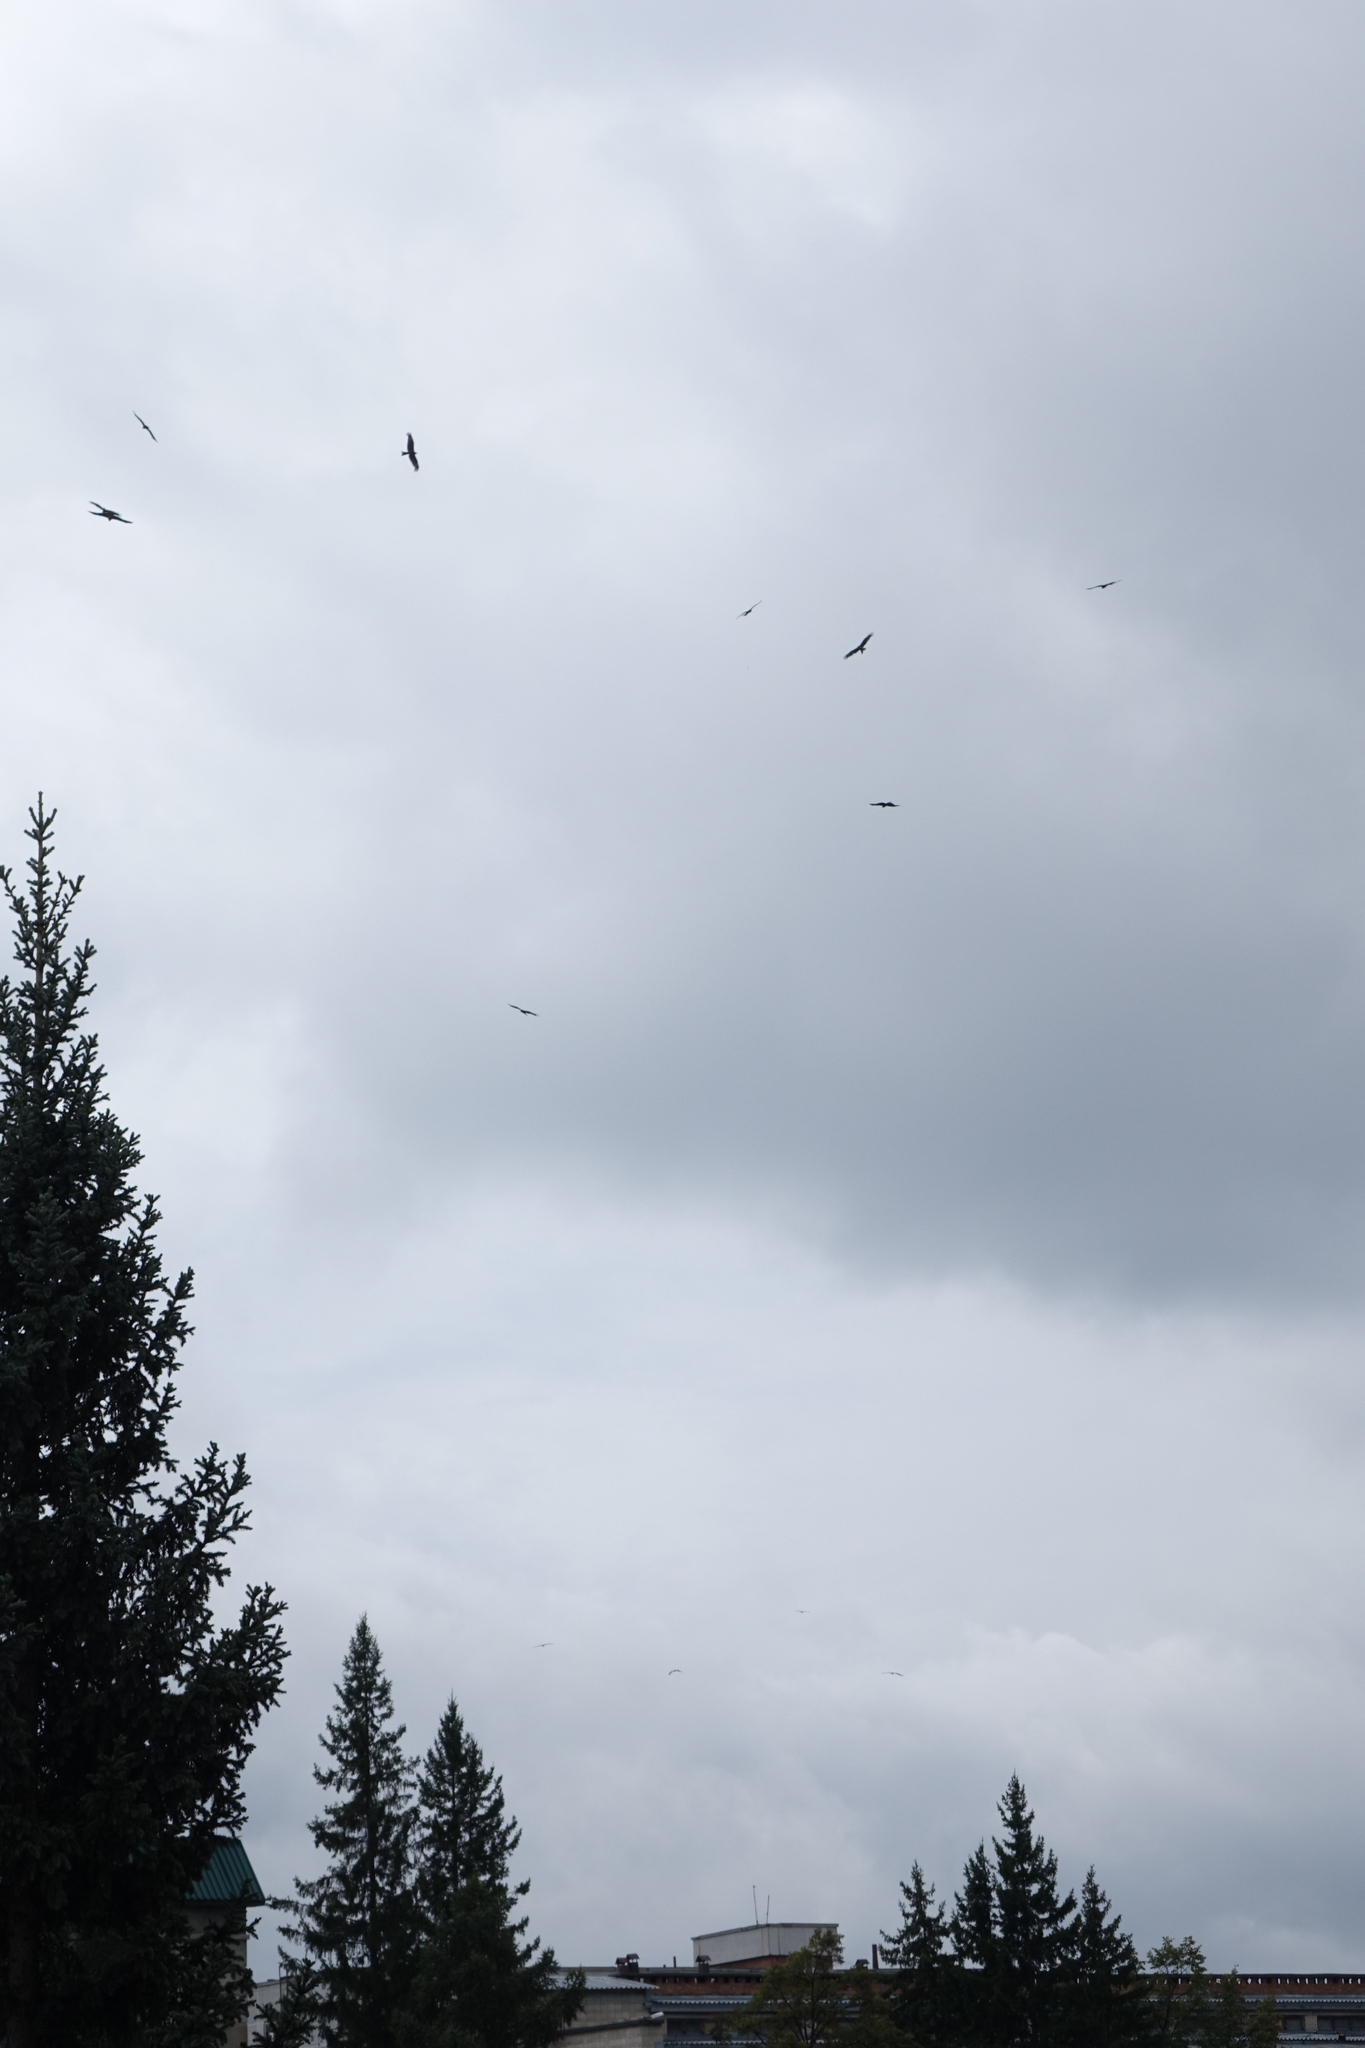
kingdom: Animalia
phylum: Chordata
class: Aves
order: Accipitriformes
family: Accipitridae
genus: Milvus
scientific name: Milvus migrans
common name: Black kite
